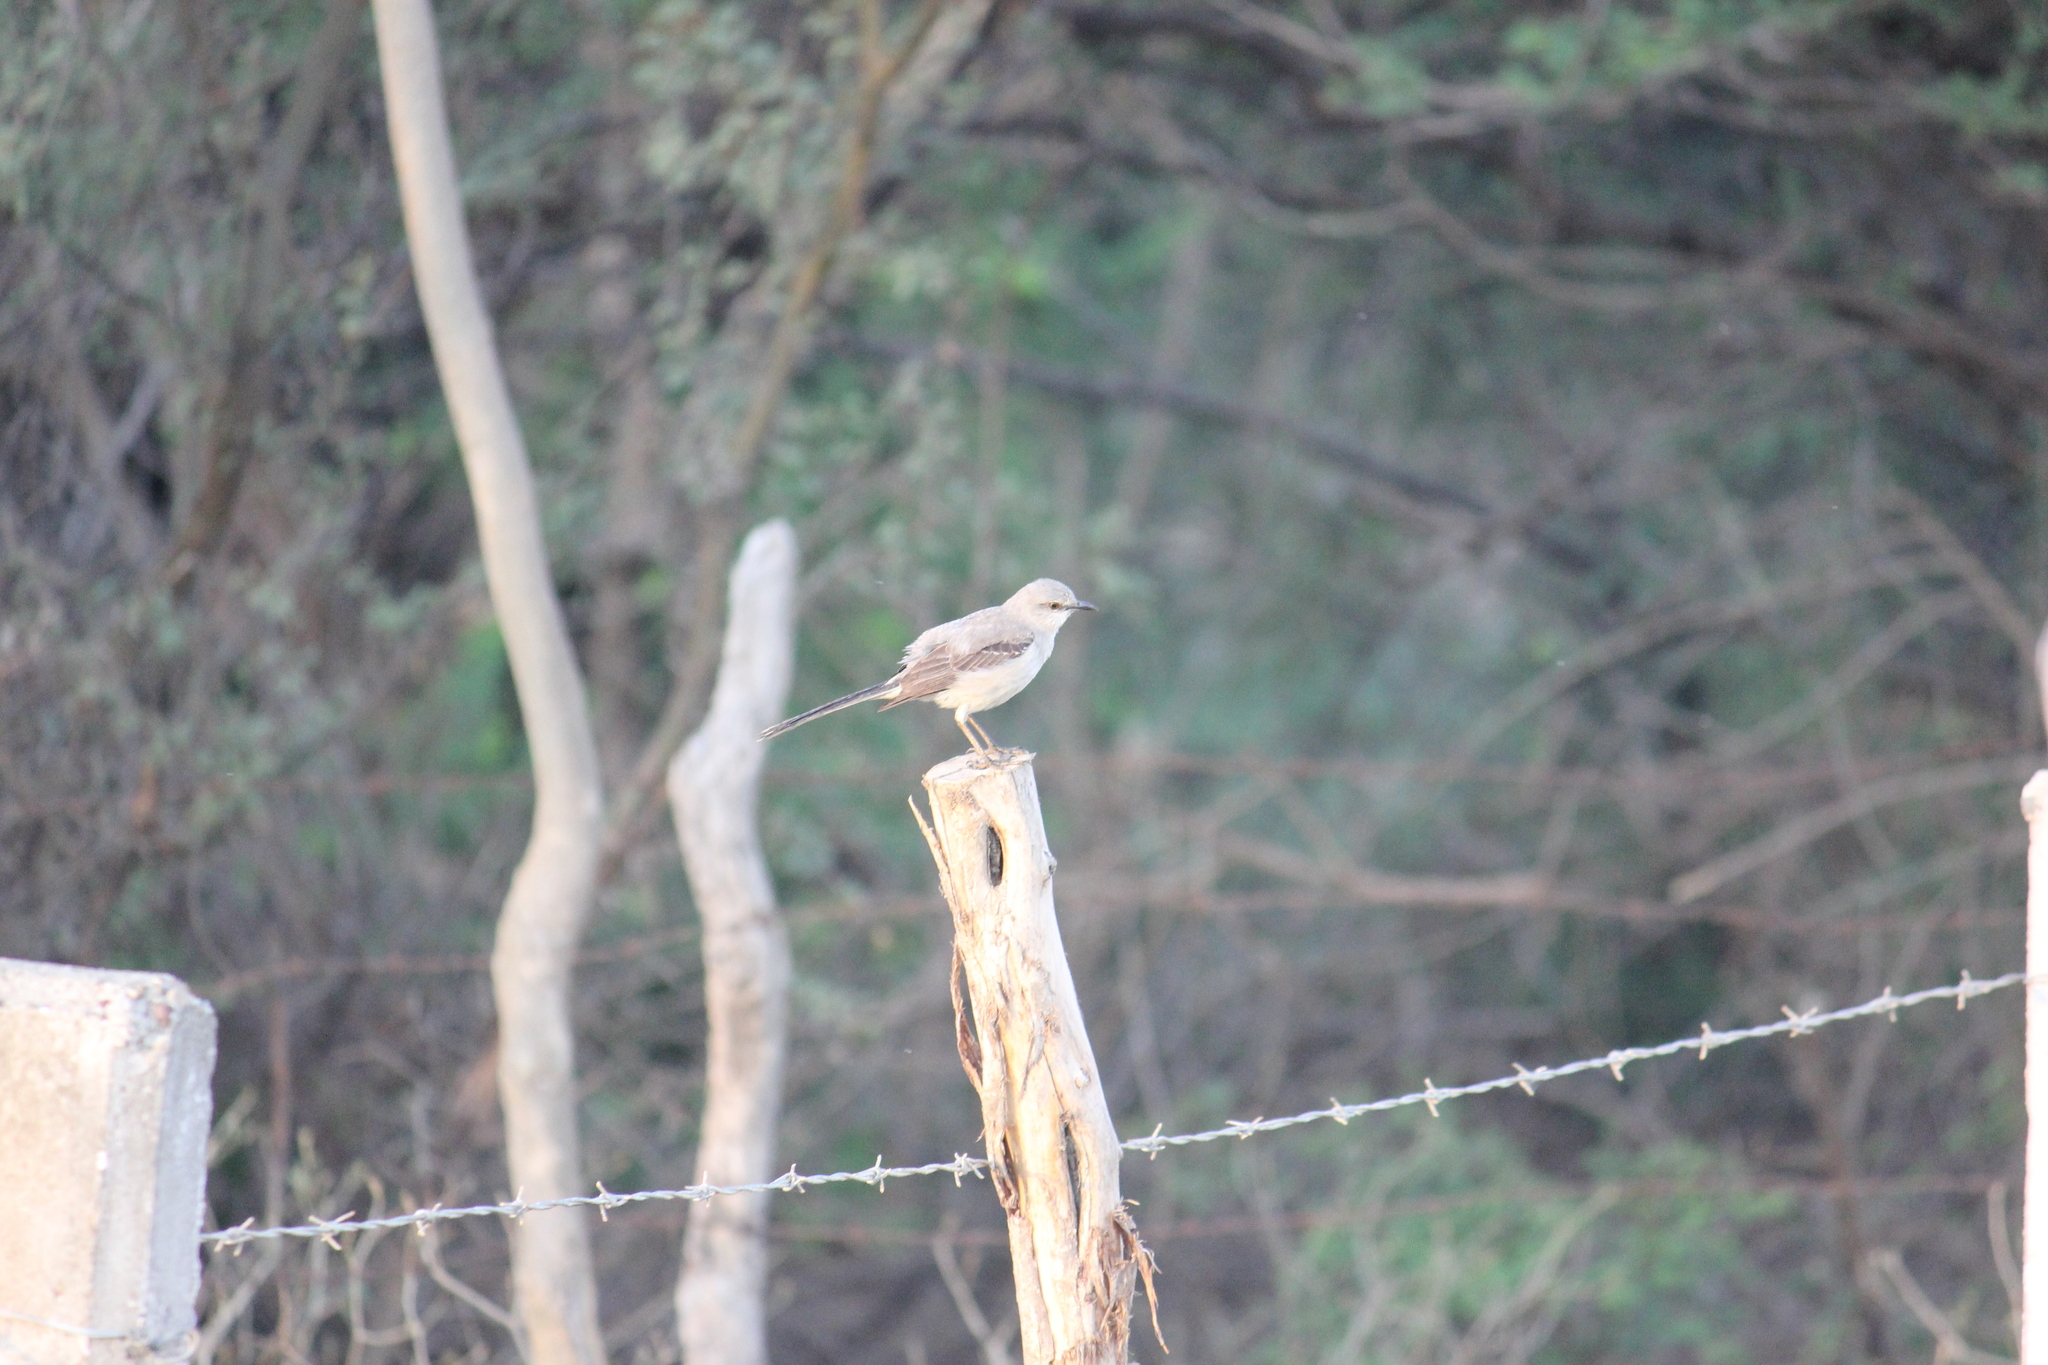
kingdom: Animalia
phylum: Chordata
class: Aves
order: Passeriformes
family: Mimidae
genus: Mimus
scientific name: Mimus gilvus
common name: Tropical mockingbird
